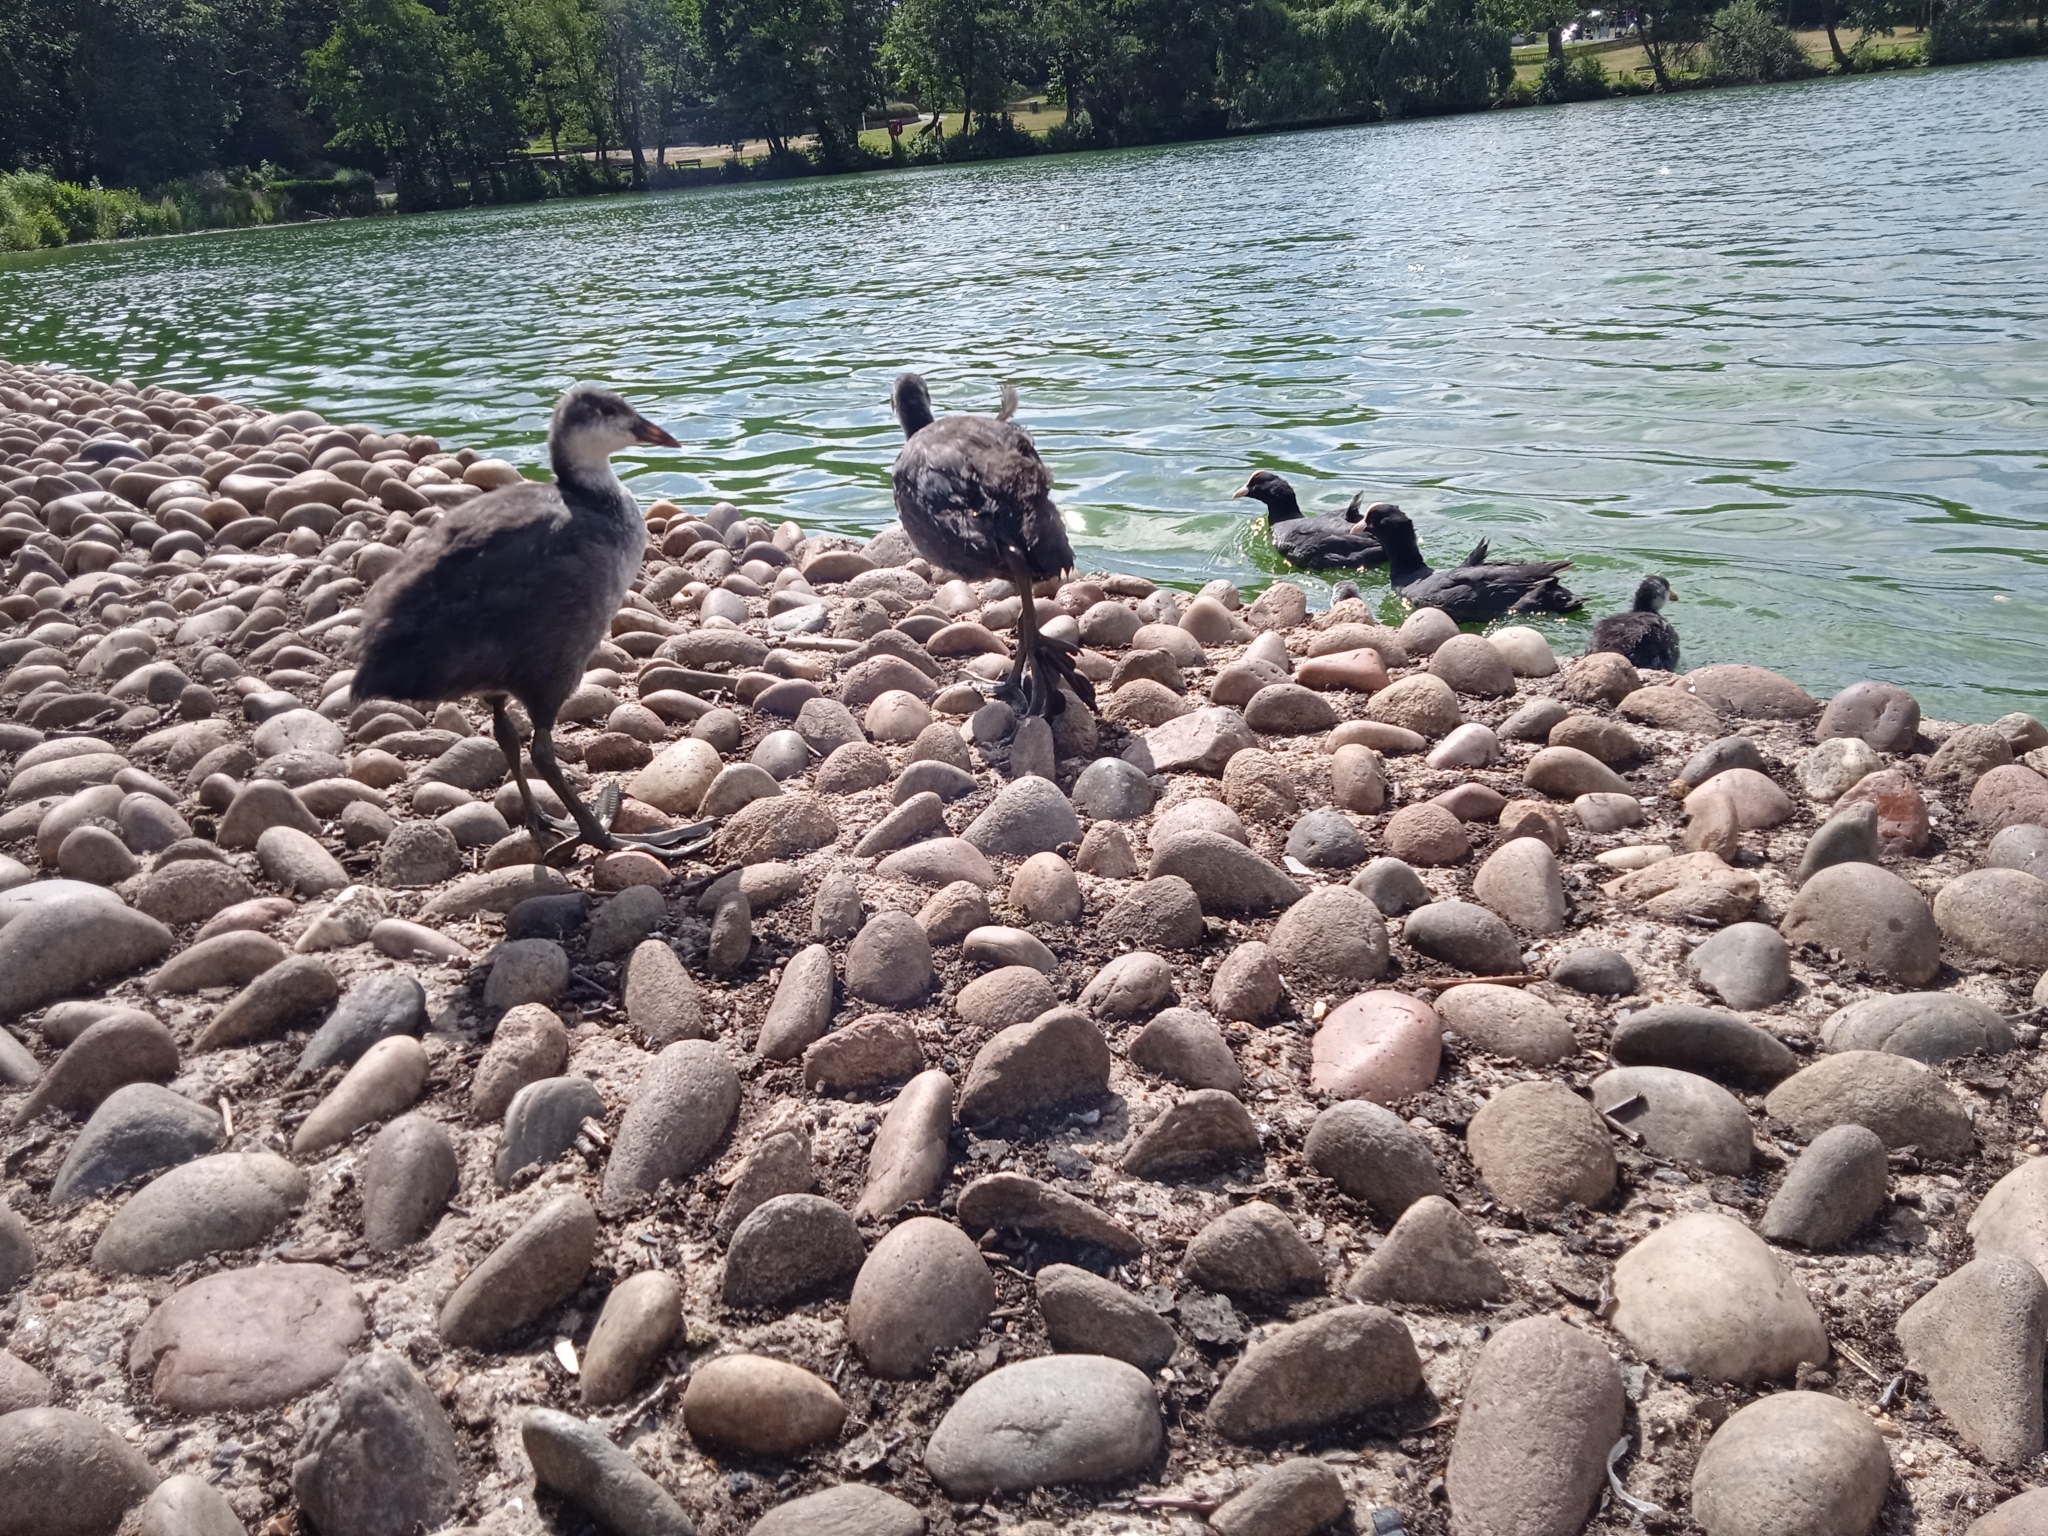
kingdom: Animalia
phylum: Chordata
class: Aves
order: Gruiformes
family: Rallidae
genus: Fulica
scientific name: Fulica atra
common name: Eurasian coot
